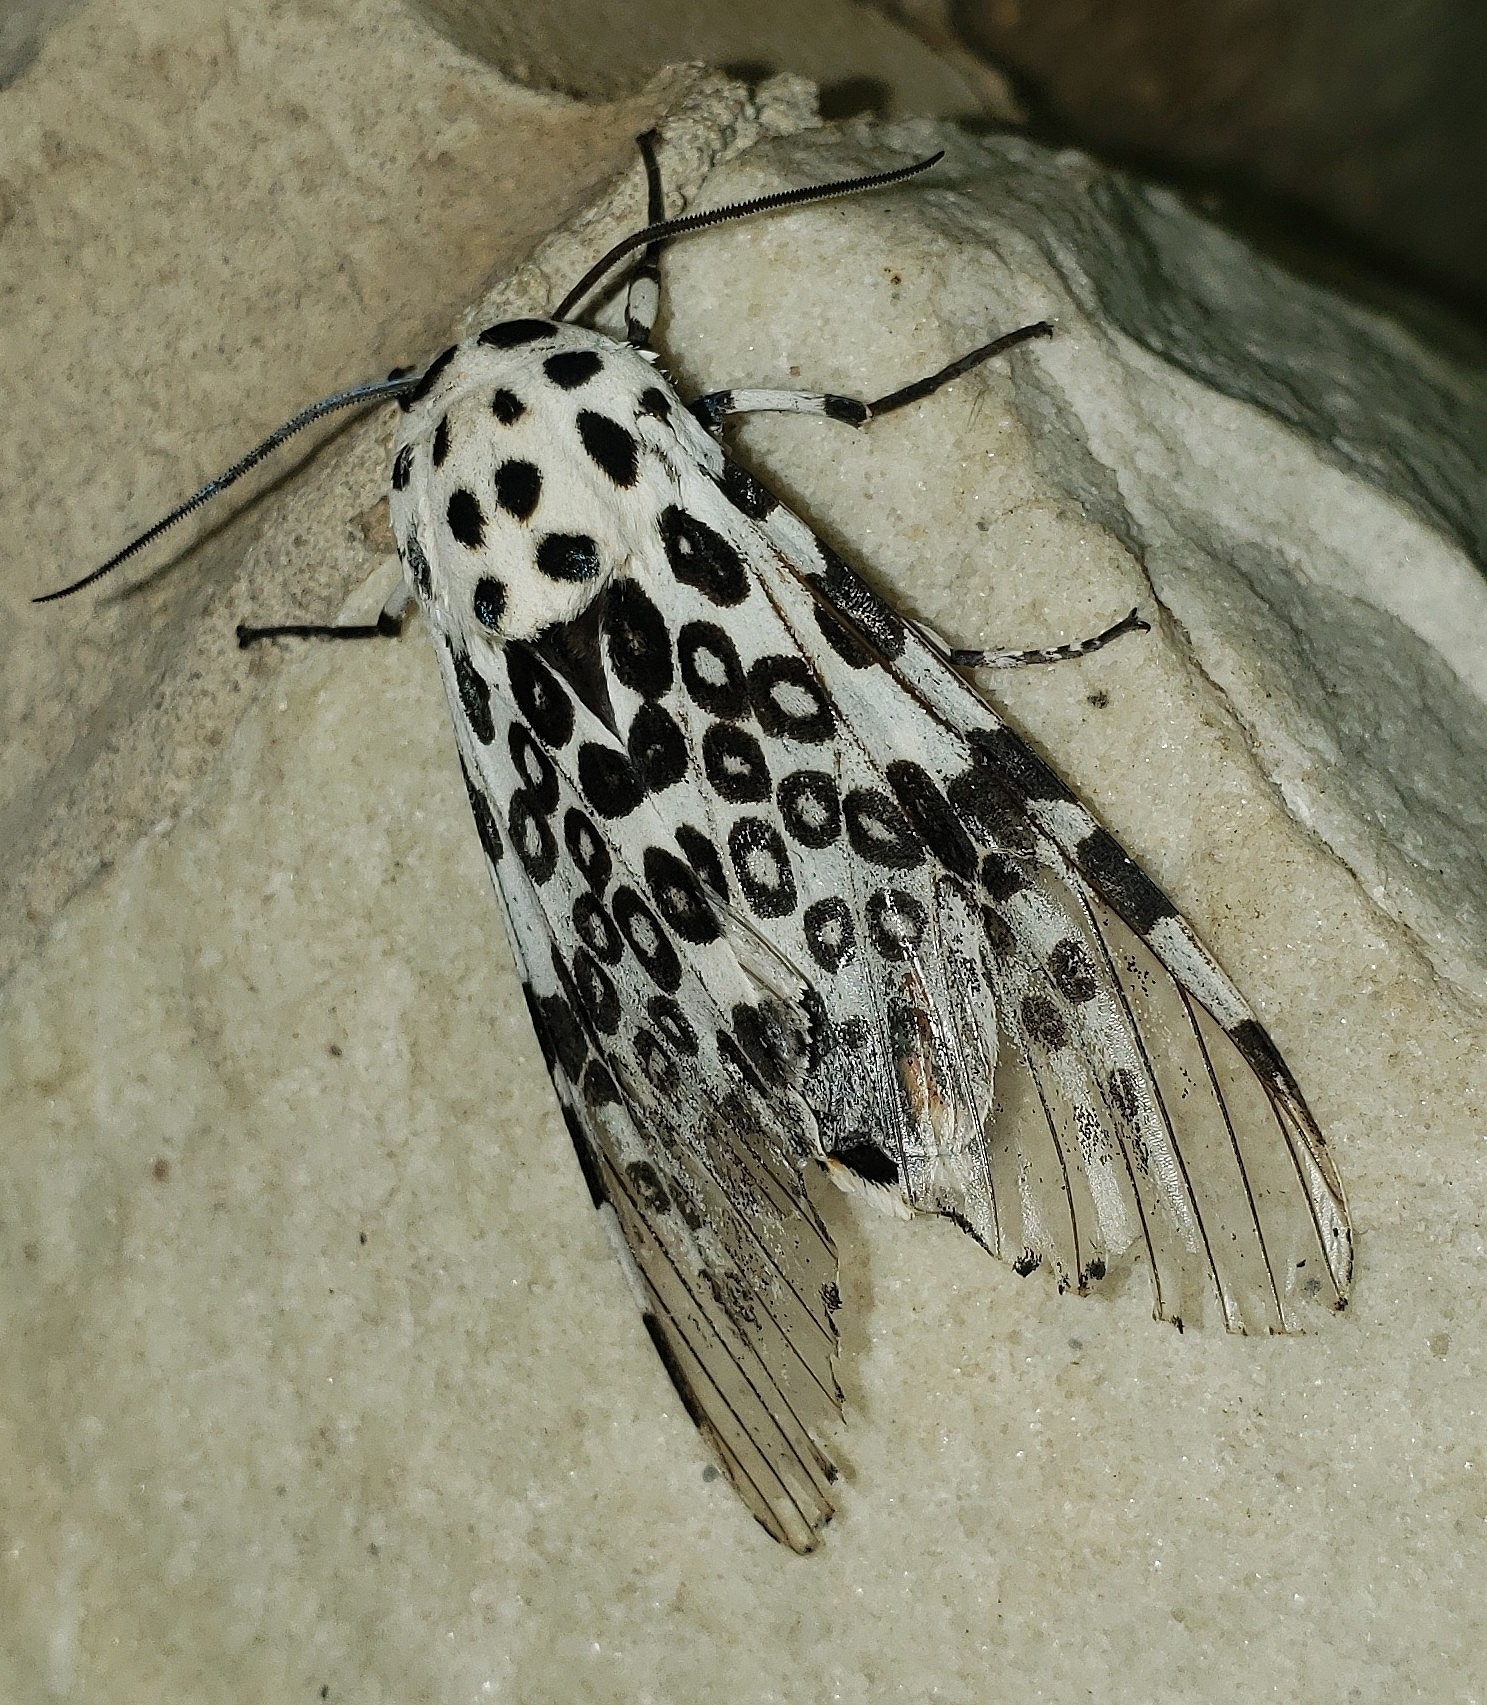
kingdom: Animalia
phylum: Arthropoda
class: Insecta
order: Lepidoptera
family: Erebidae
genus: Hypercompe
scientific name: Hypercompe scribonia
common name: Giant leopard moth
